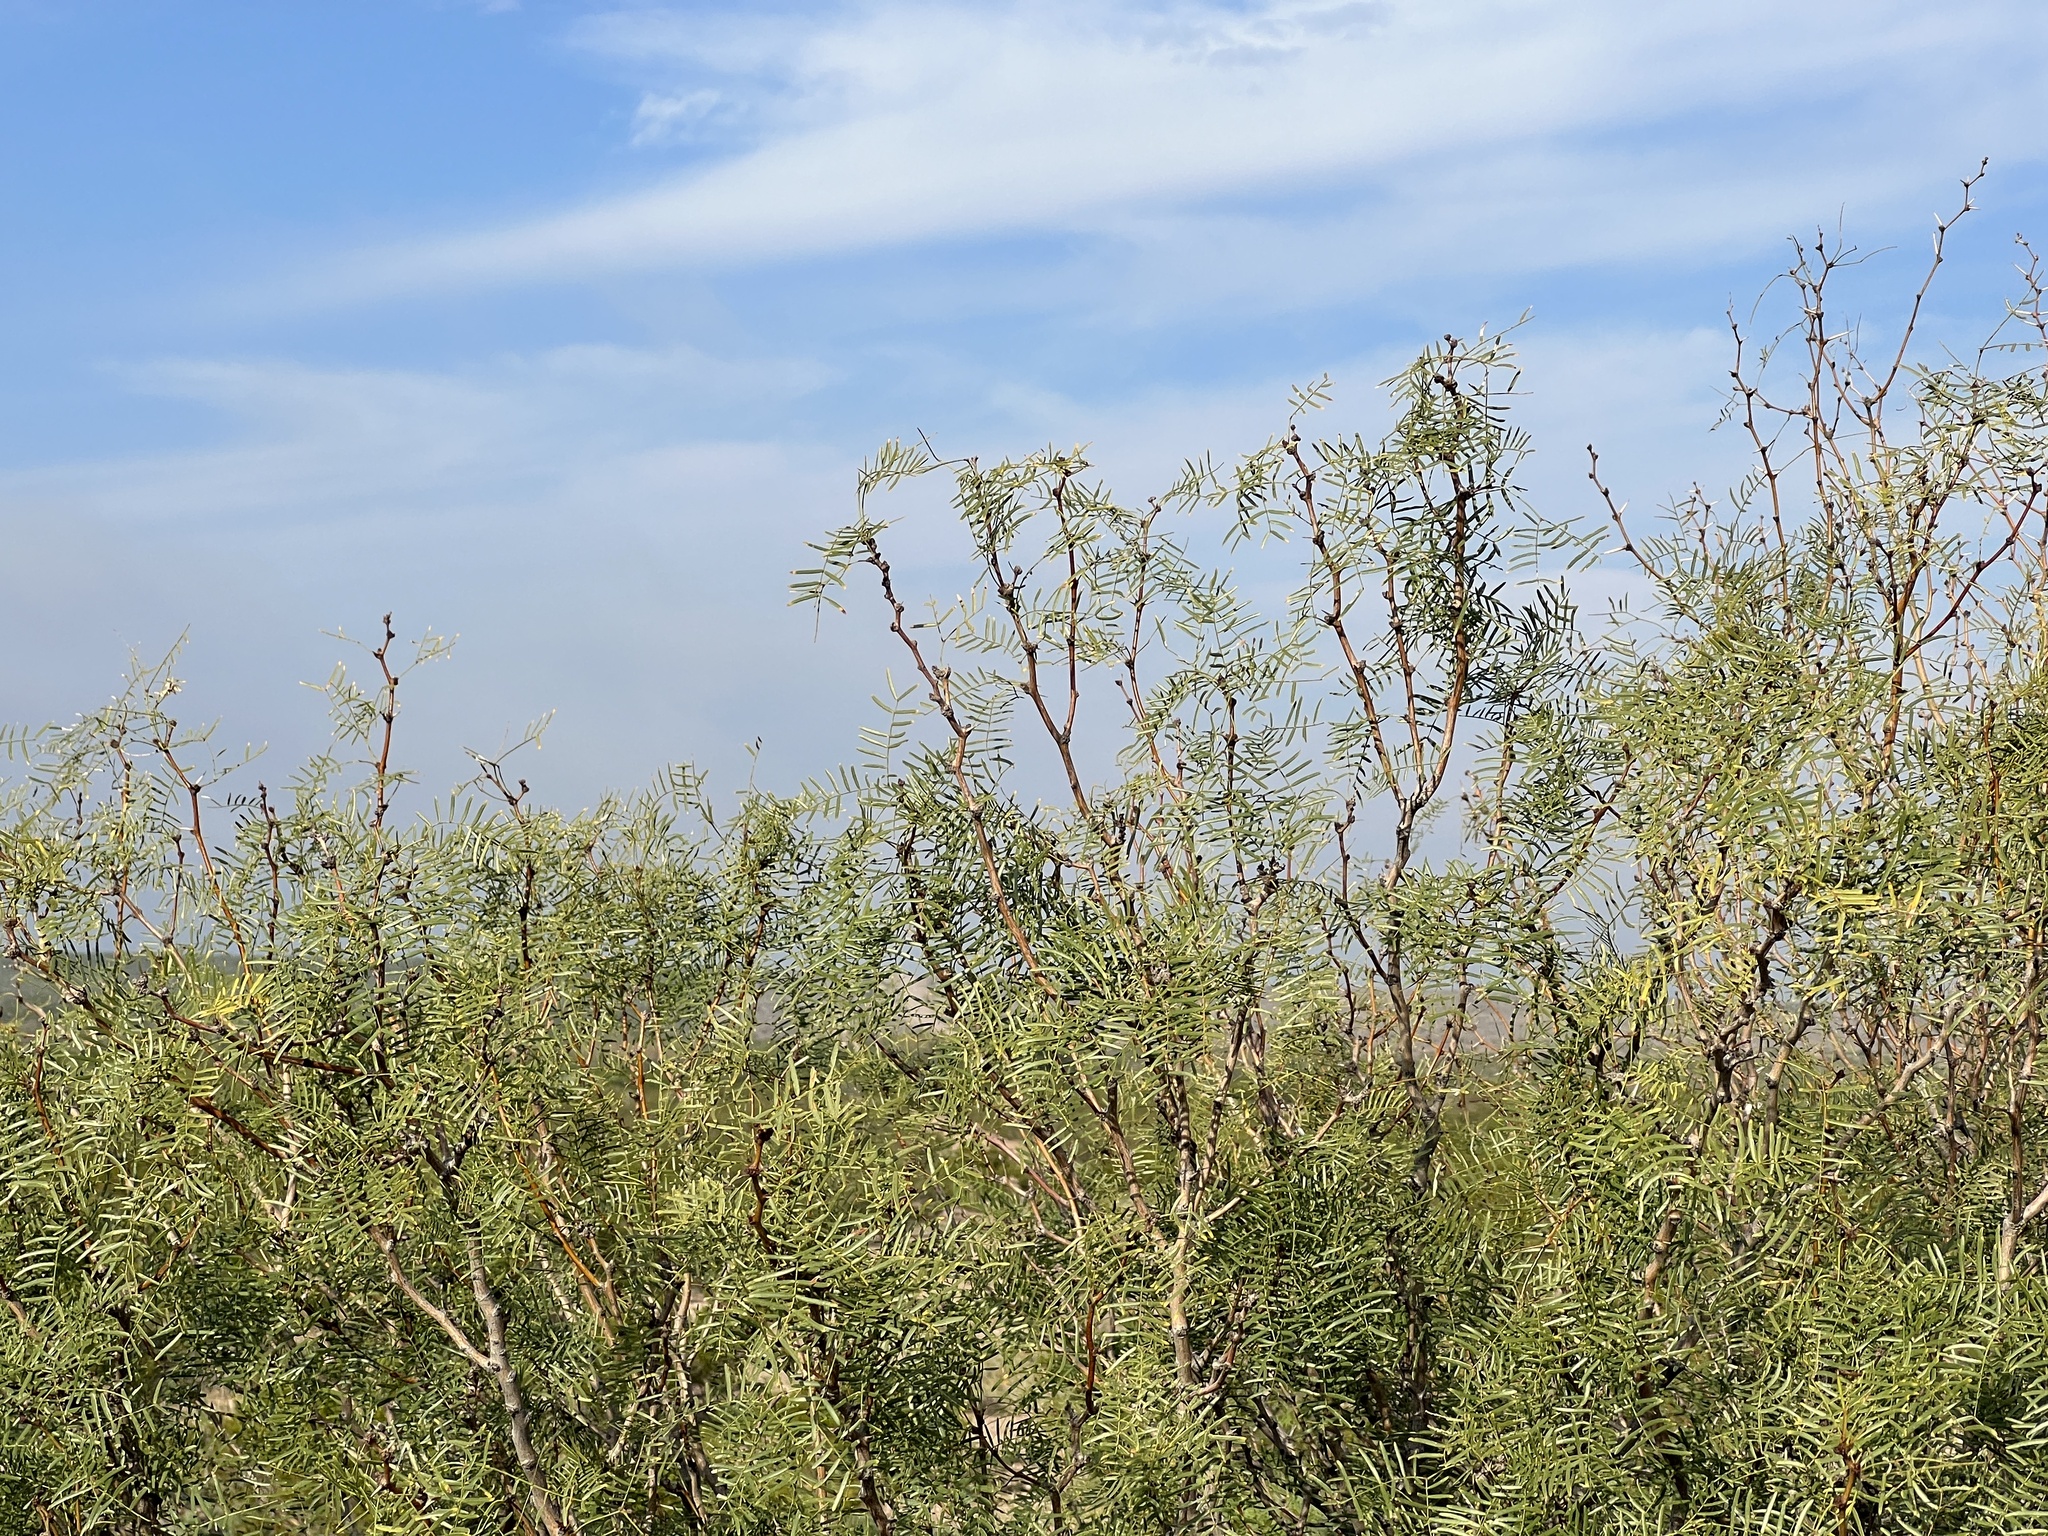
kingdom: Plantae
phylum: Tracheophyta
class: Magnoliopsida
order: Fabales
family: Fabaceae
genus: Prosopis
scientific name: Prosopis glandulosa
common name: Honey mesquite
